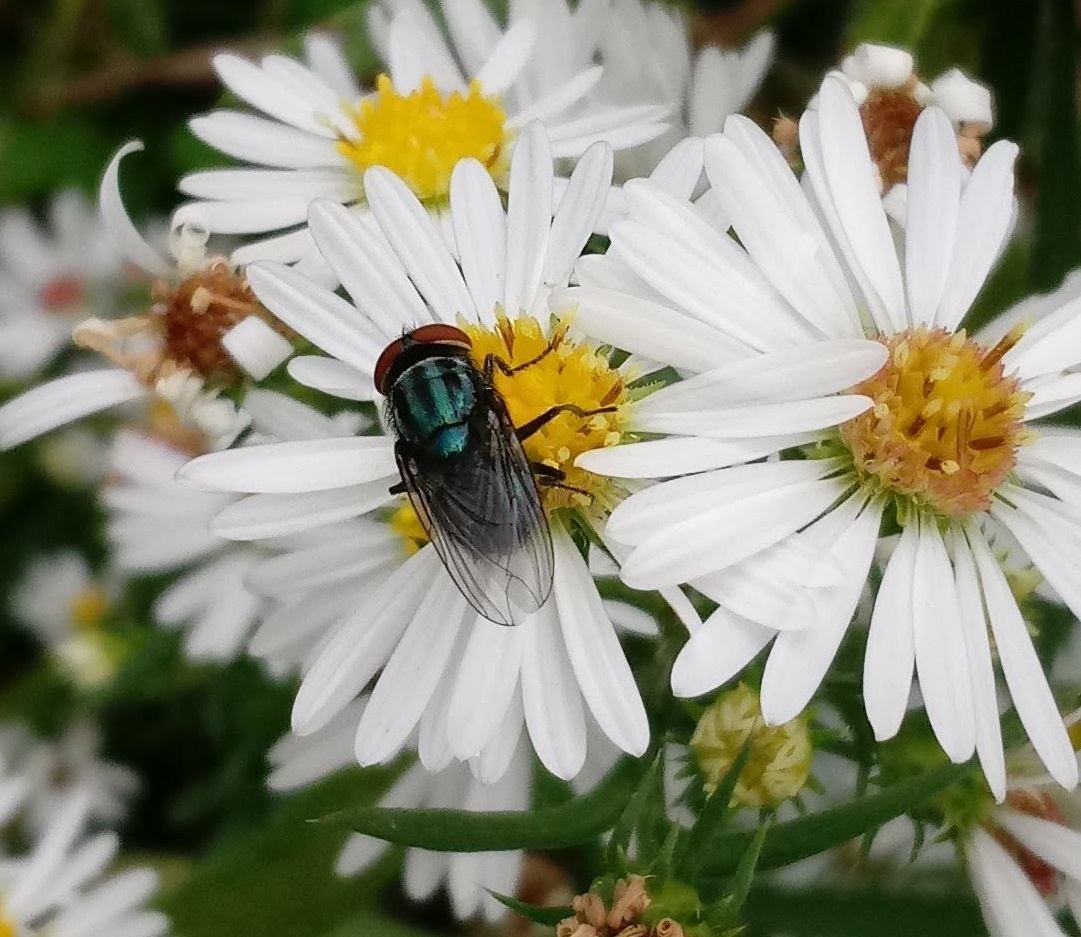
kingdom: Animalia
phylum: Arthropoda
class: Insecta
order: Diptera
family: Calliphoridae
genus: Cochliomyia
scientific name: Cochliomyia macellaria
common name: Secondary screwworm
